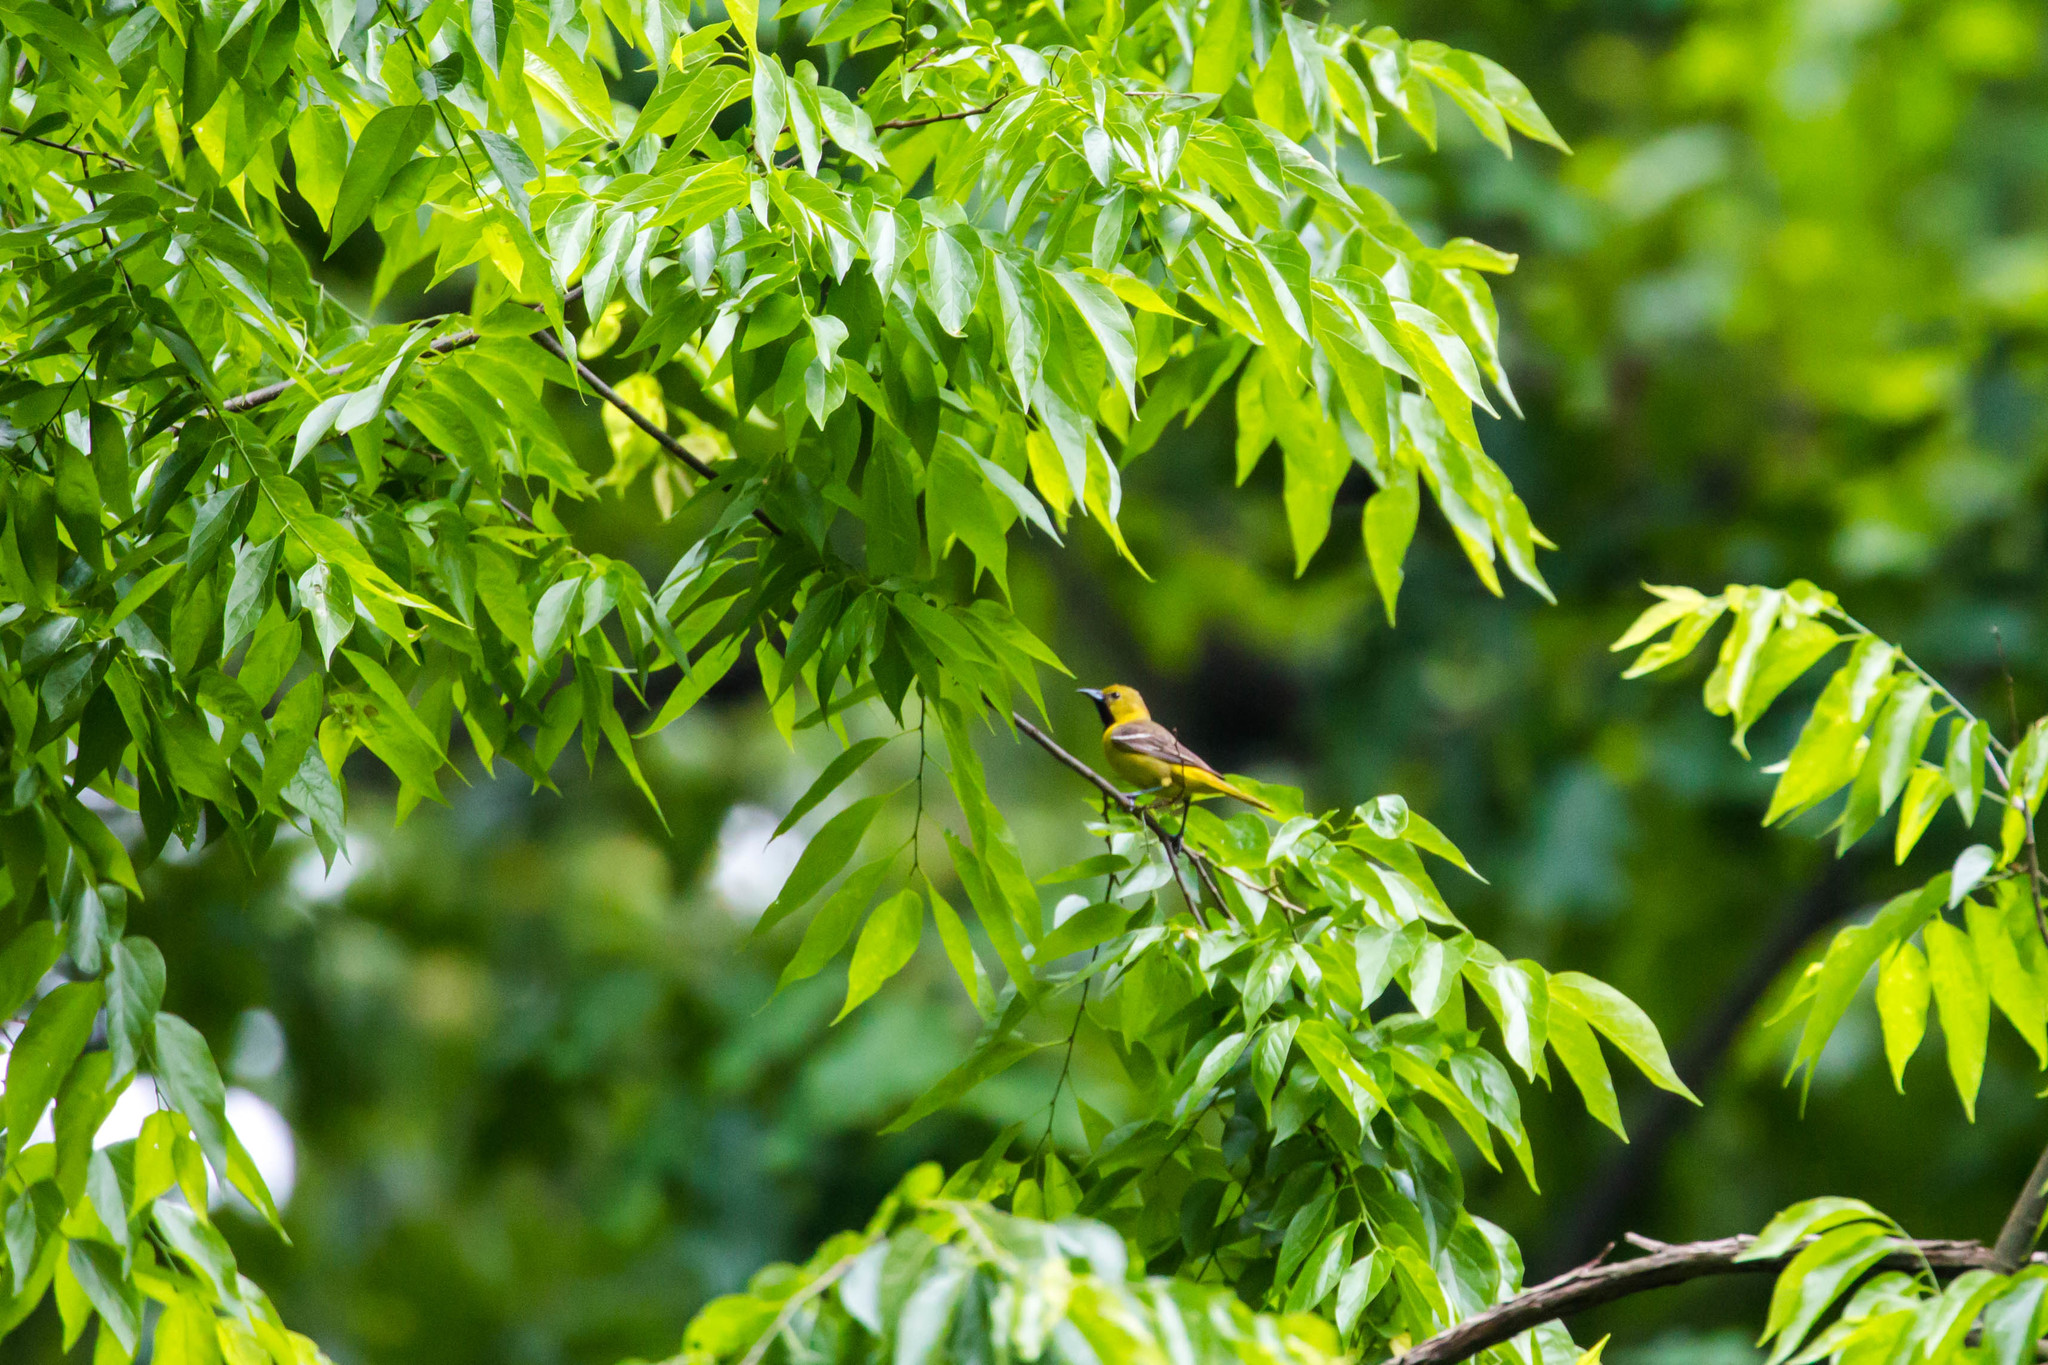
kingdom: Animalia
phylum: Chordata
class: Aves
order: Passeriformes
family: Icteridae
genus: Icterus
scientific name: Icterus spurius
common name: Orchard oriole
